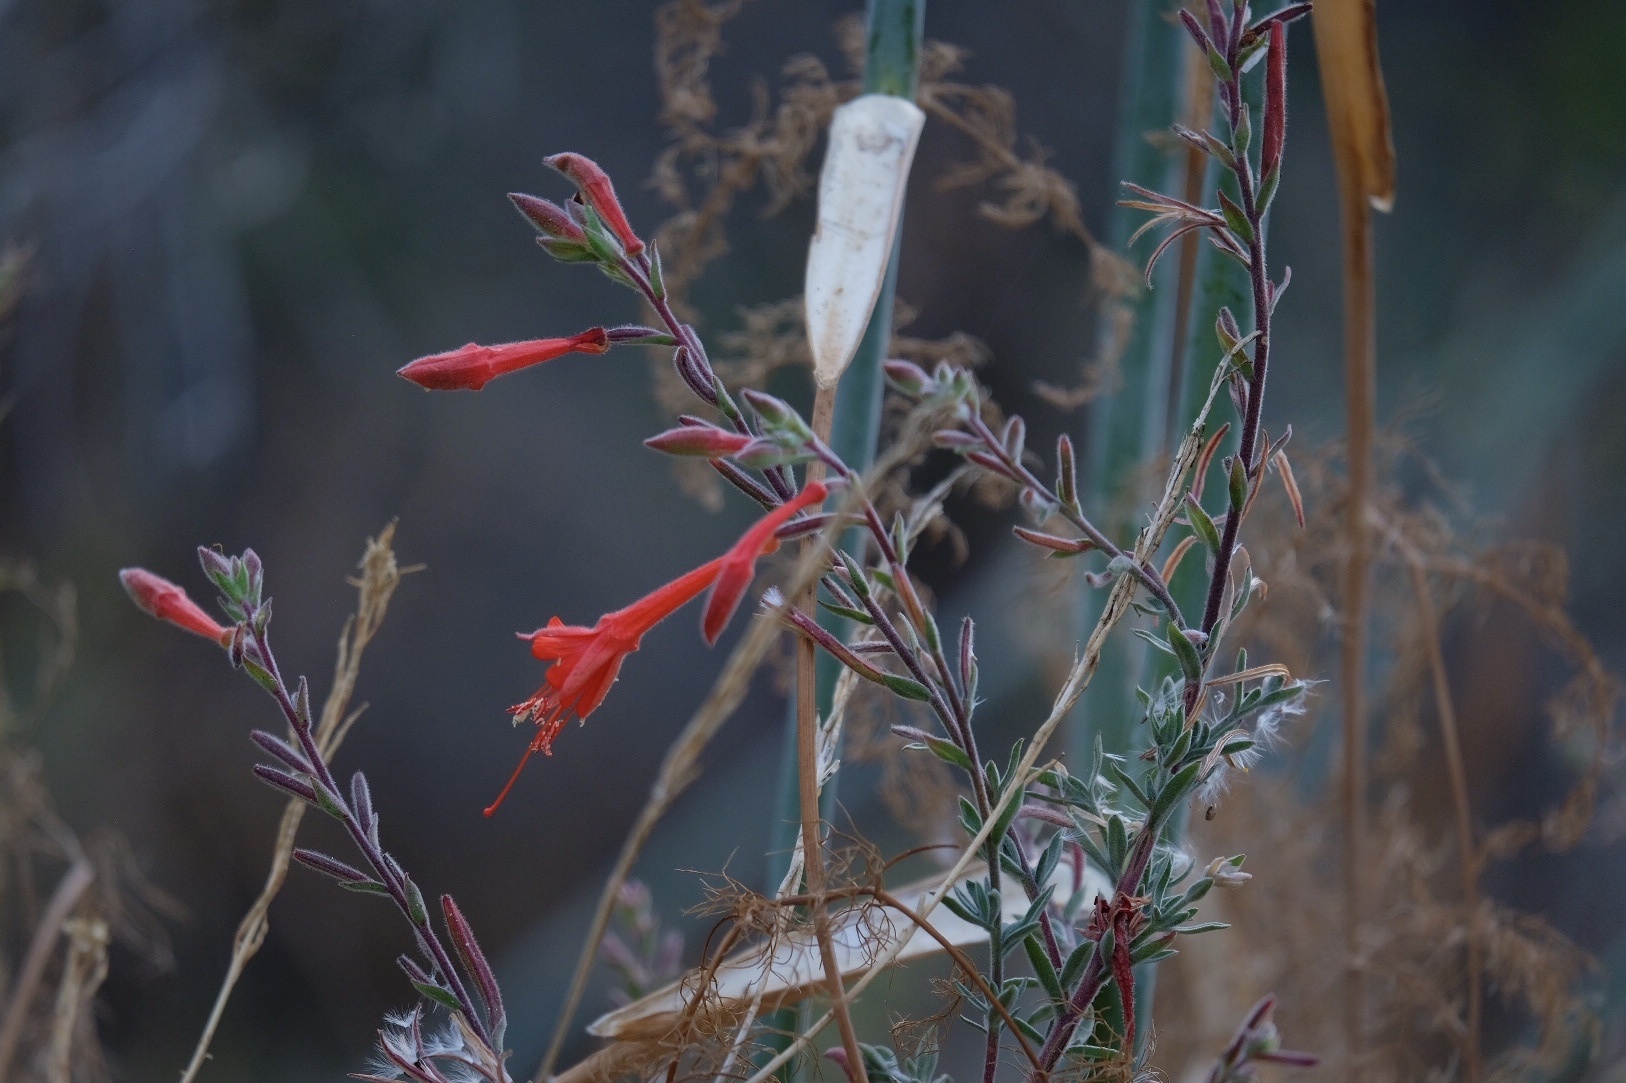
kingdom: Plantae
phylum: Tracheophyta
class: Magnoliopsida
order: Myrtales
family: Onagraceae
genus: Epilobium
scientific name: Epilobium canum
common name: California-fuchsia
